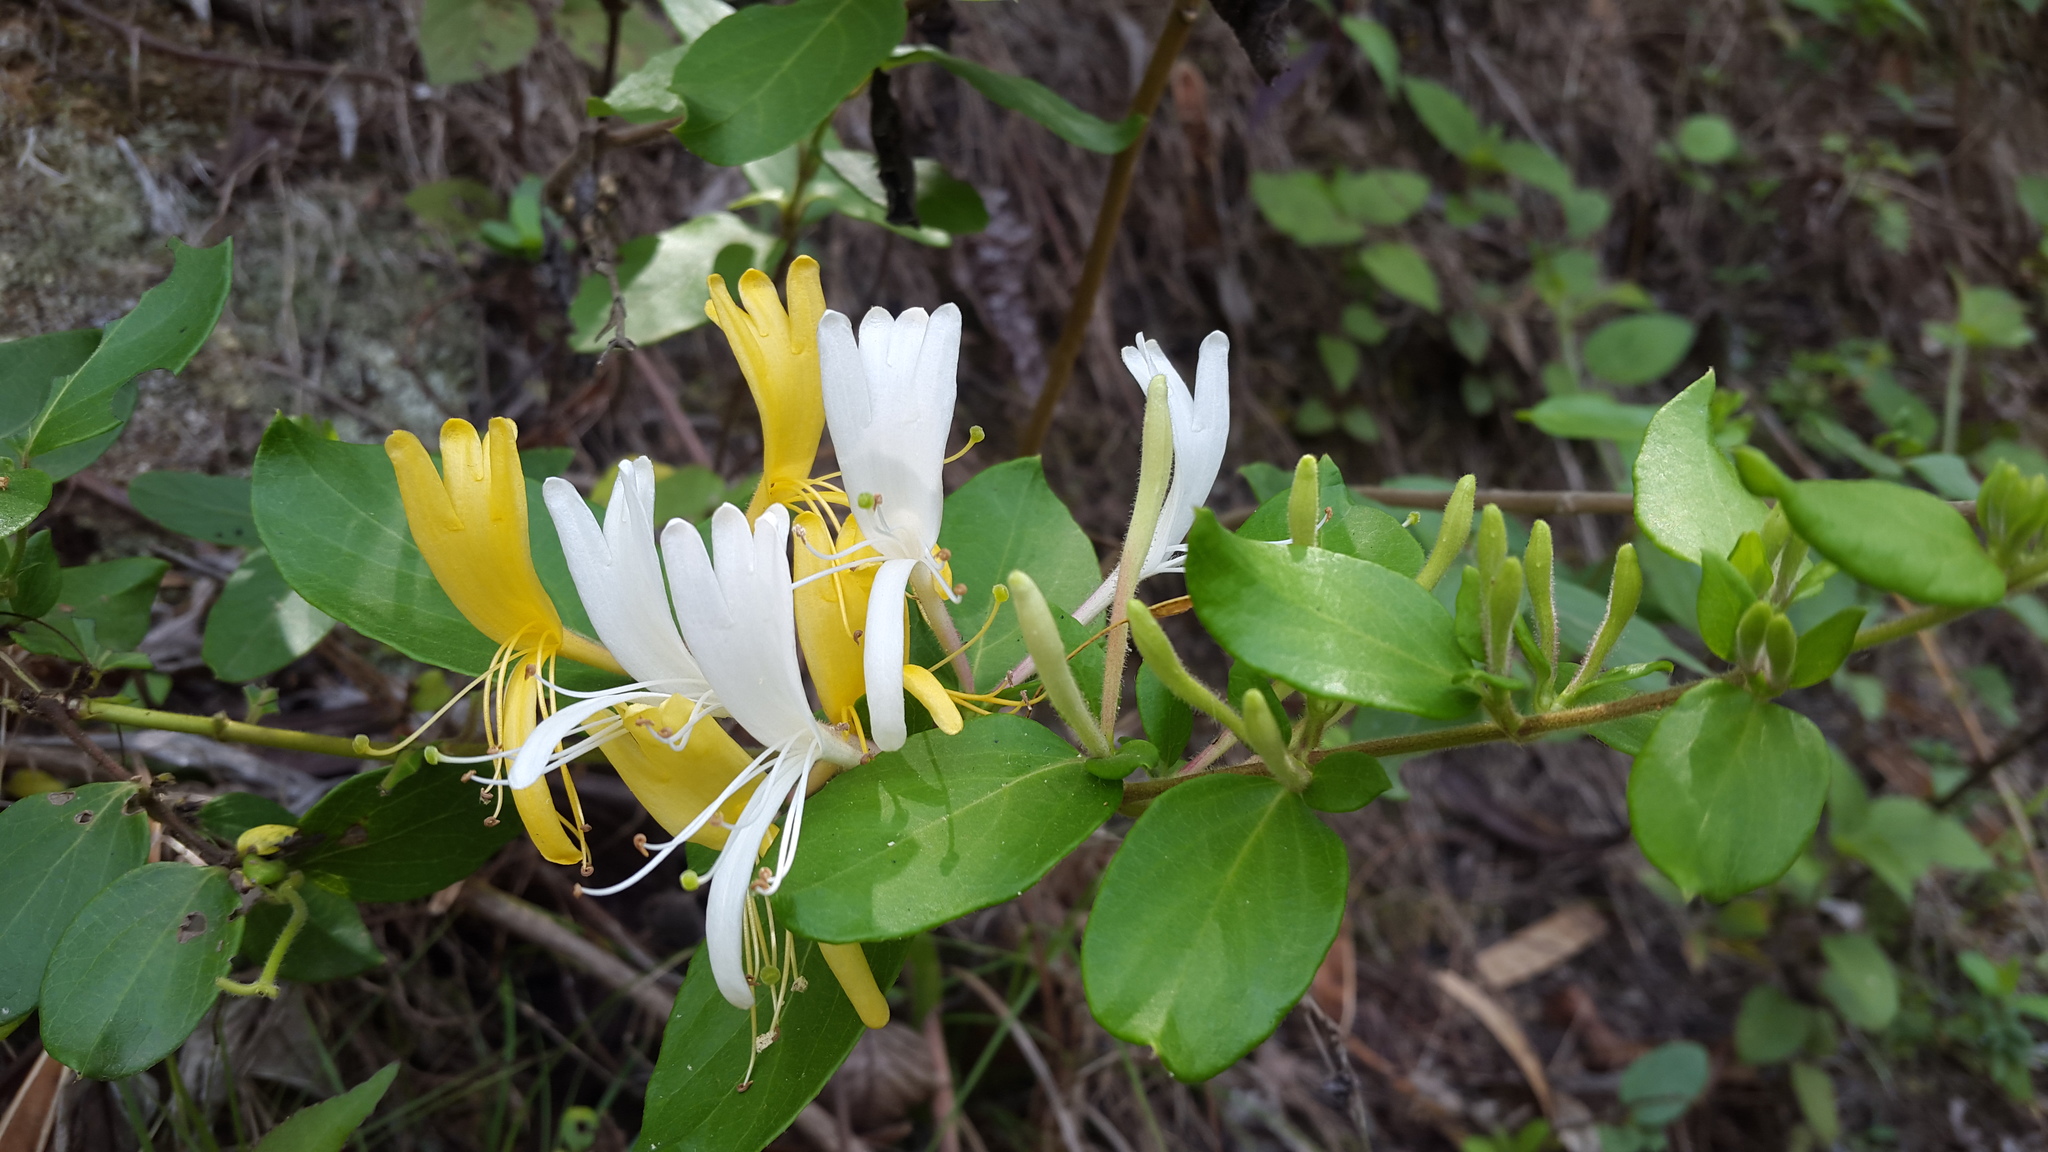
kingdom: Plantae
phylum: Tracheophyta
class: Magnoliopsida
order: Dipsacales
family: Caprifoliaceae
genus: Lonicera
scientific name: Lonicera japonica
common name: Japanese honeysuckle
